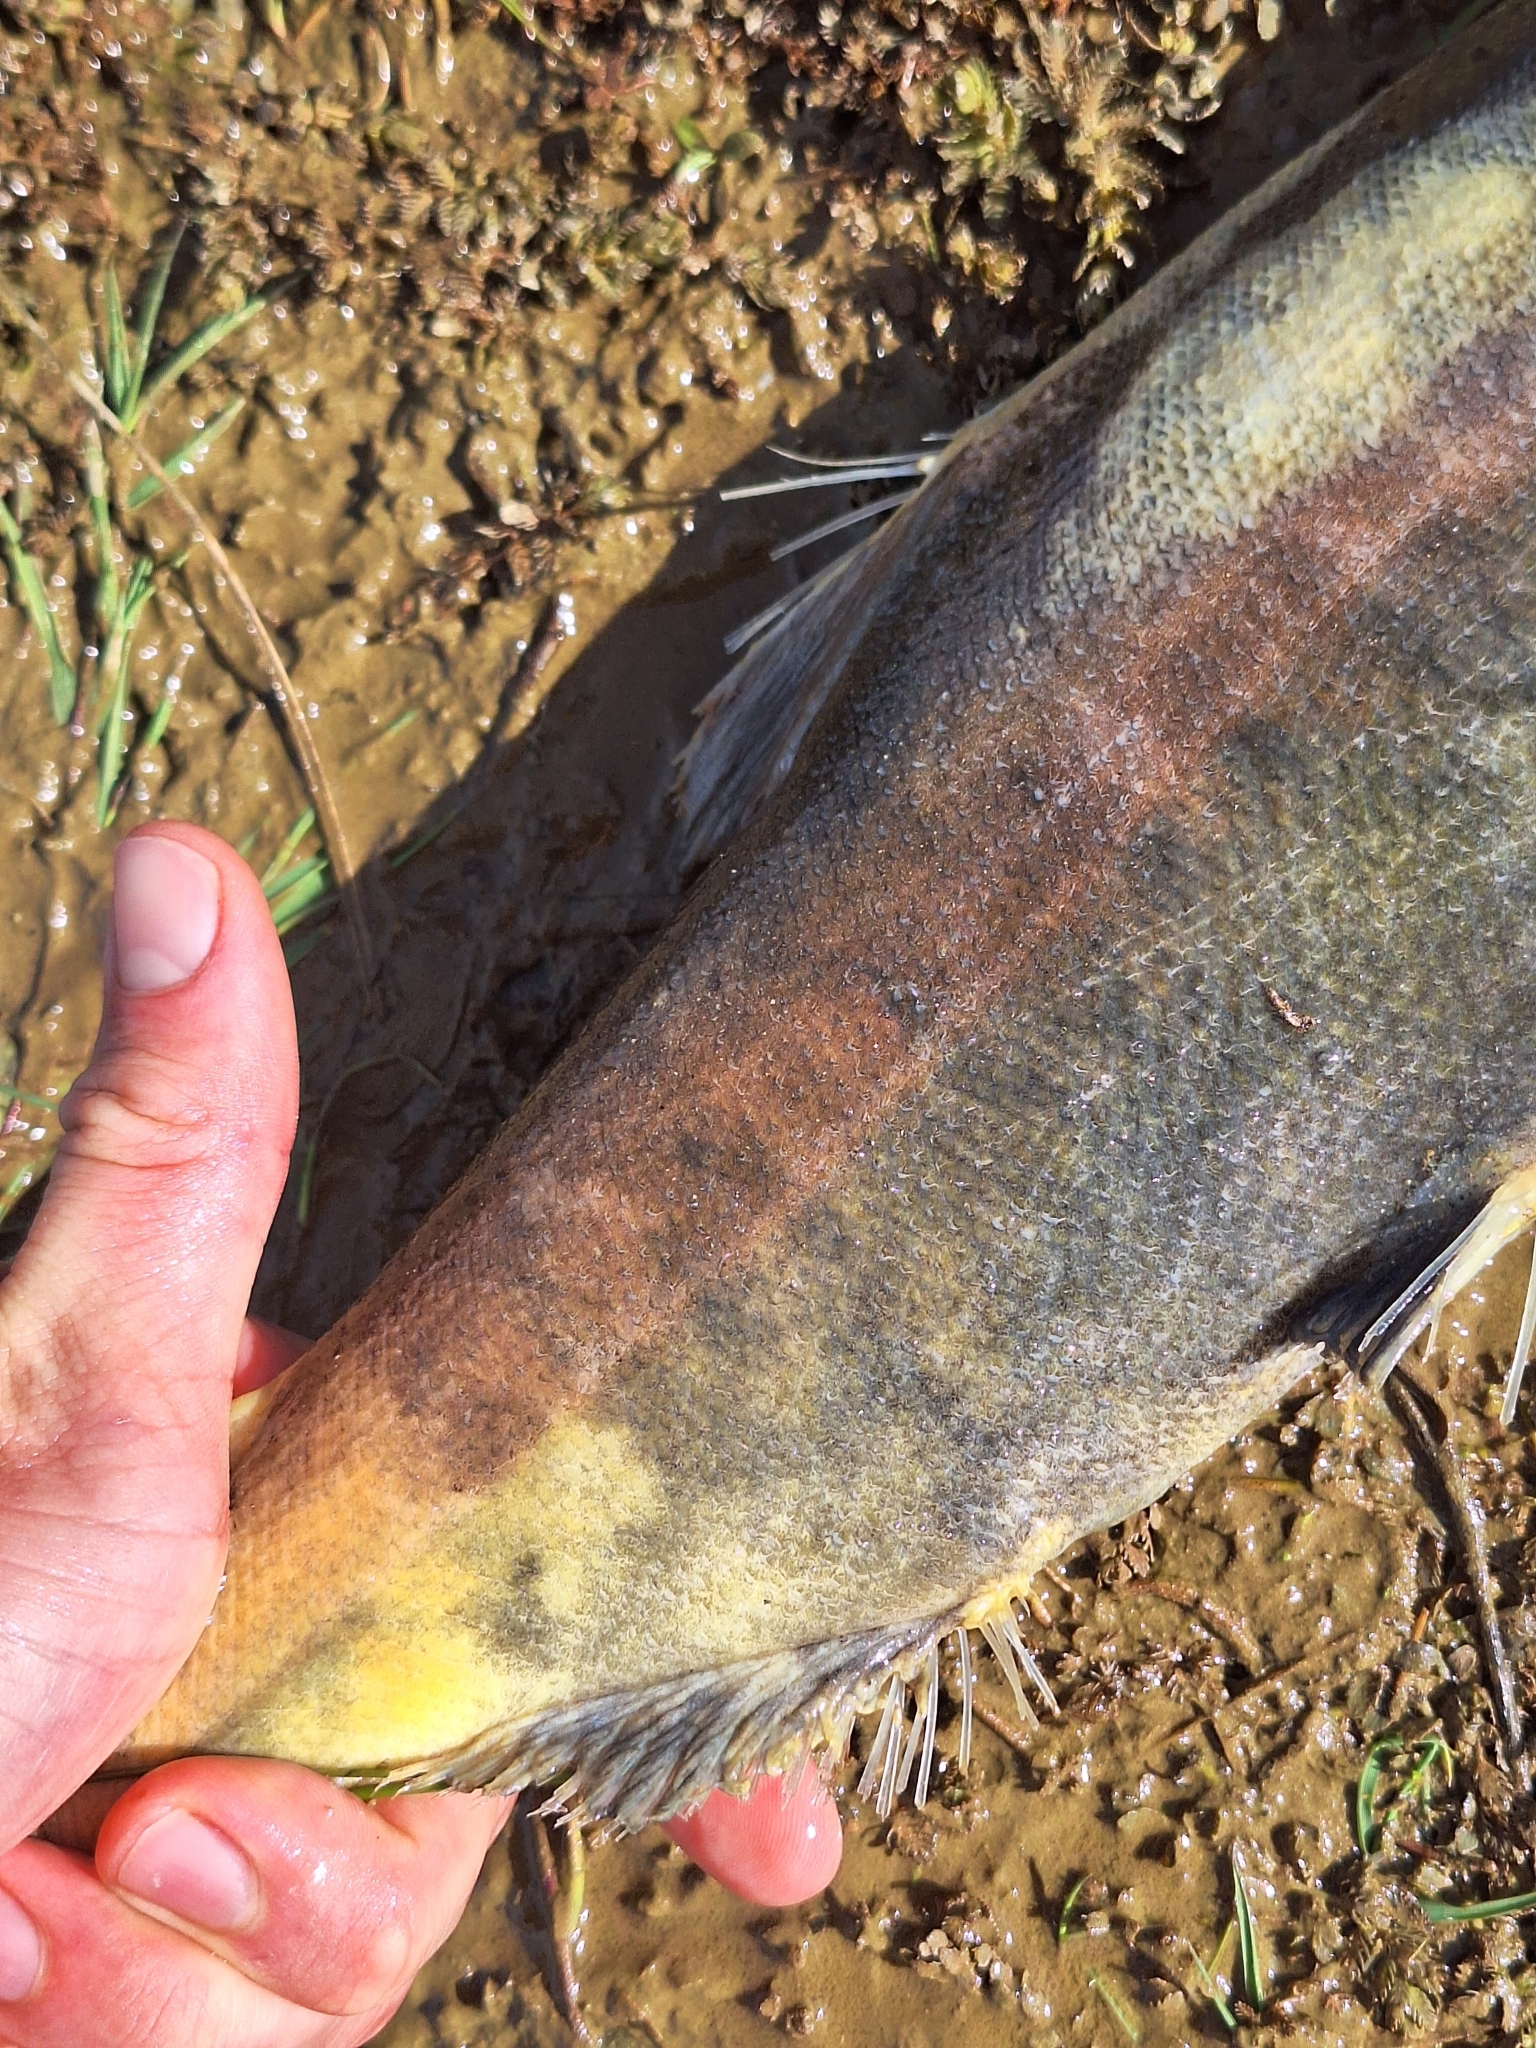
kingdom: Animalia
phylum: Chordata
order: Salmoniformes
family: Salmonidae
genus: Oncorhynchus
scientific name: Oncorhynchus tshawytscha
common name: Chinook salmon
